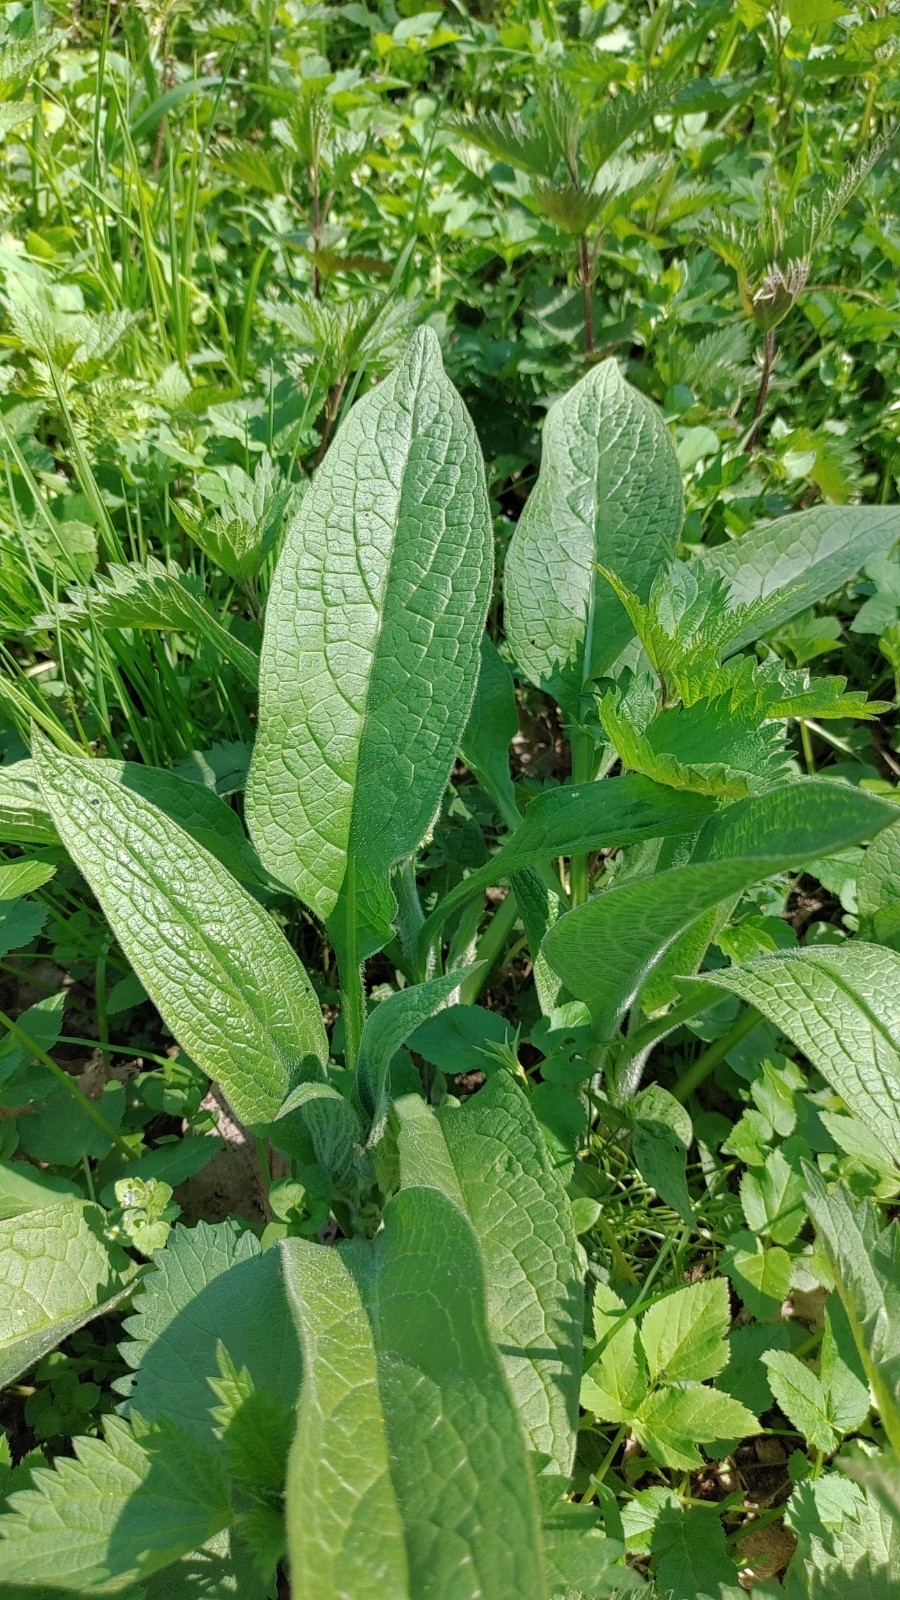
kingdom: Plantae
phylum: Tracheophyta
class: Magnoliopsida
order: Boraginales
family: Boraginaceae
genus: Symphytum
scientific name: Symphytum officinale
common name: Common comfrey
